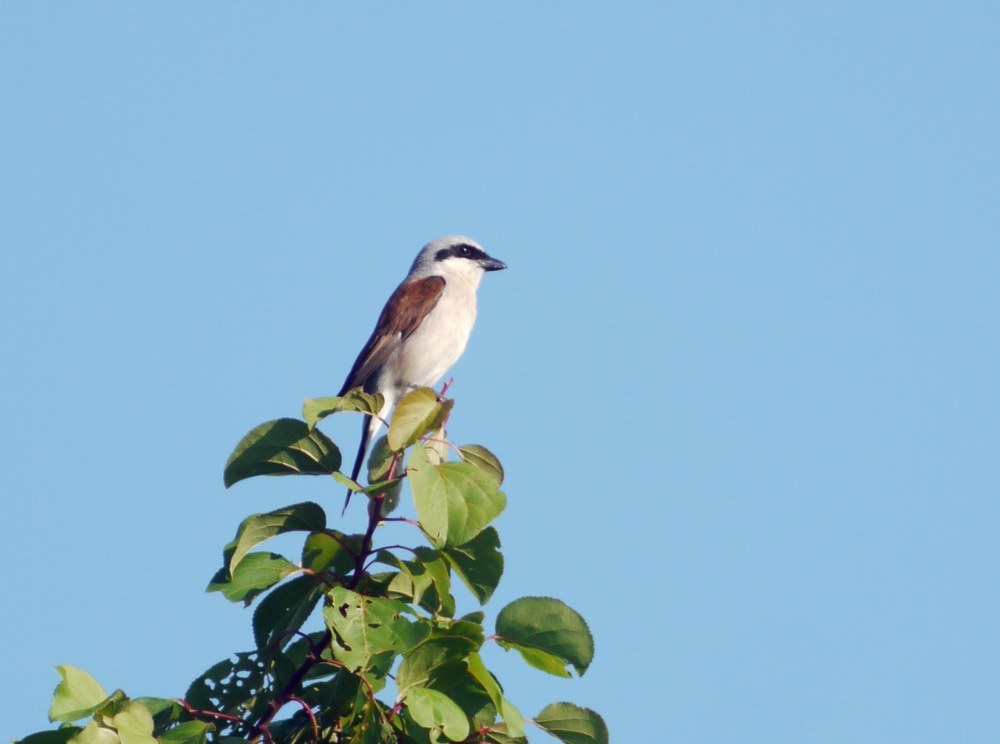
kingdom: Animalia
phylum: Chordata
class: Aves
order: Passeriformes
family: Laniidae
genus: Lanius
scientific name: Lanius collurio
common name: Red-backed shrike
